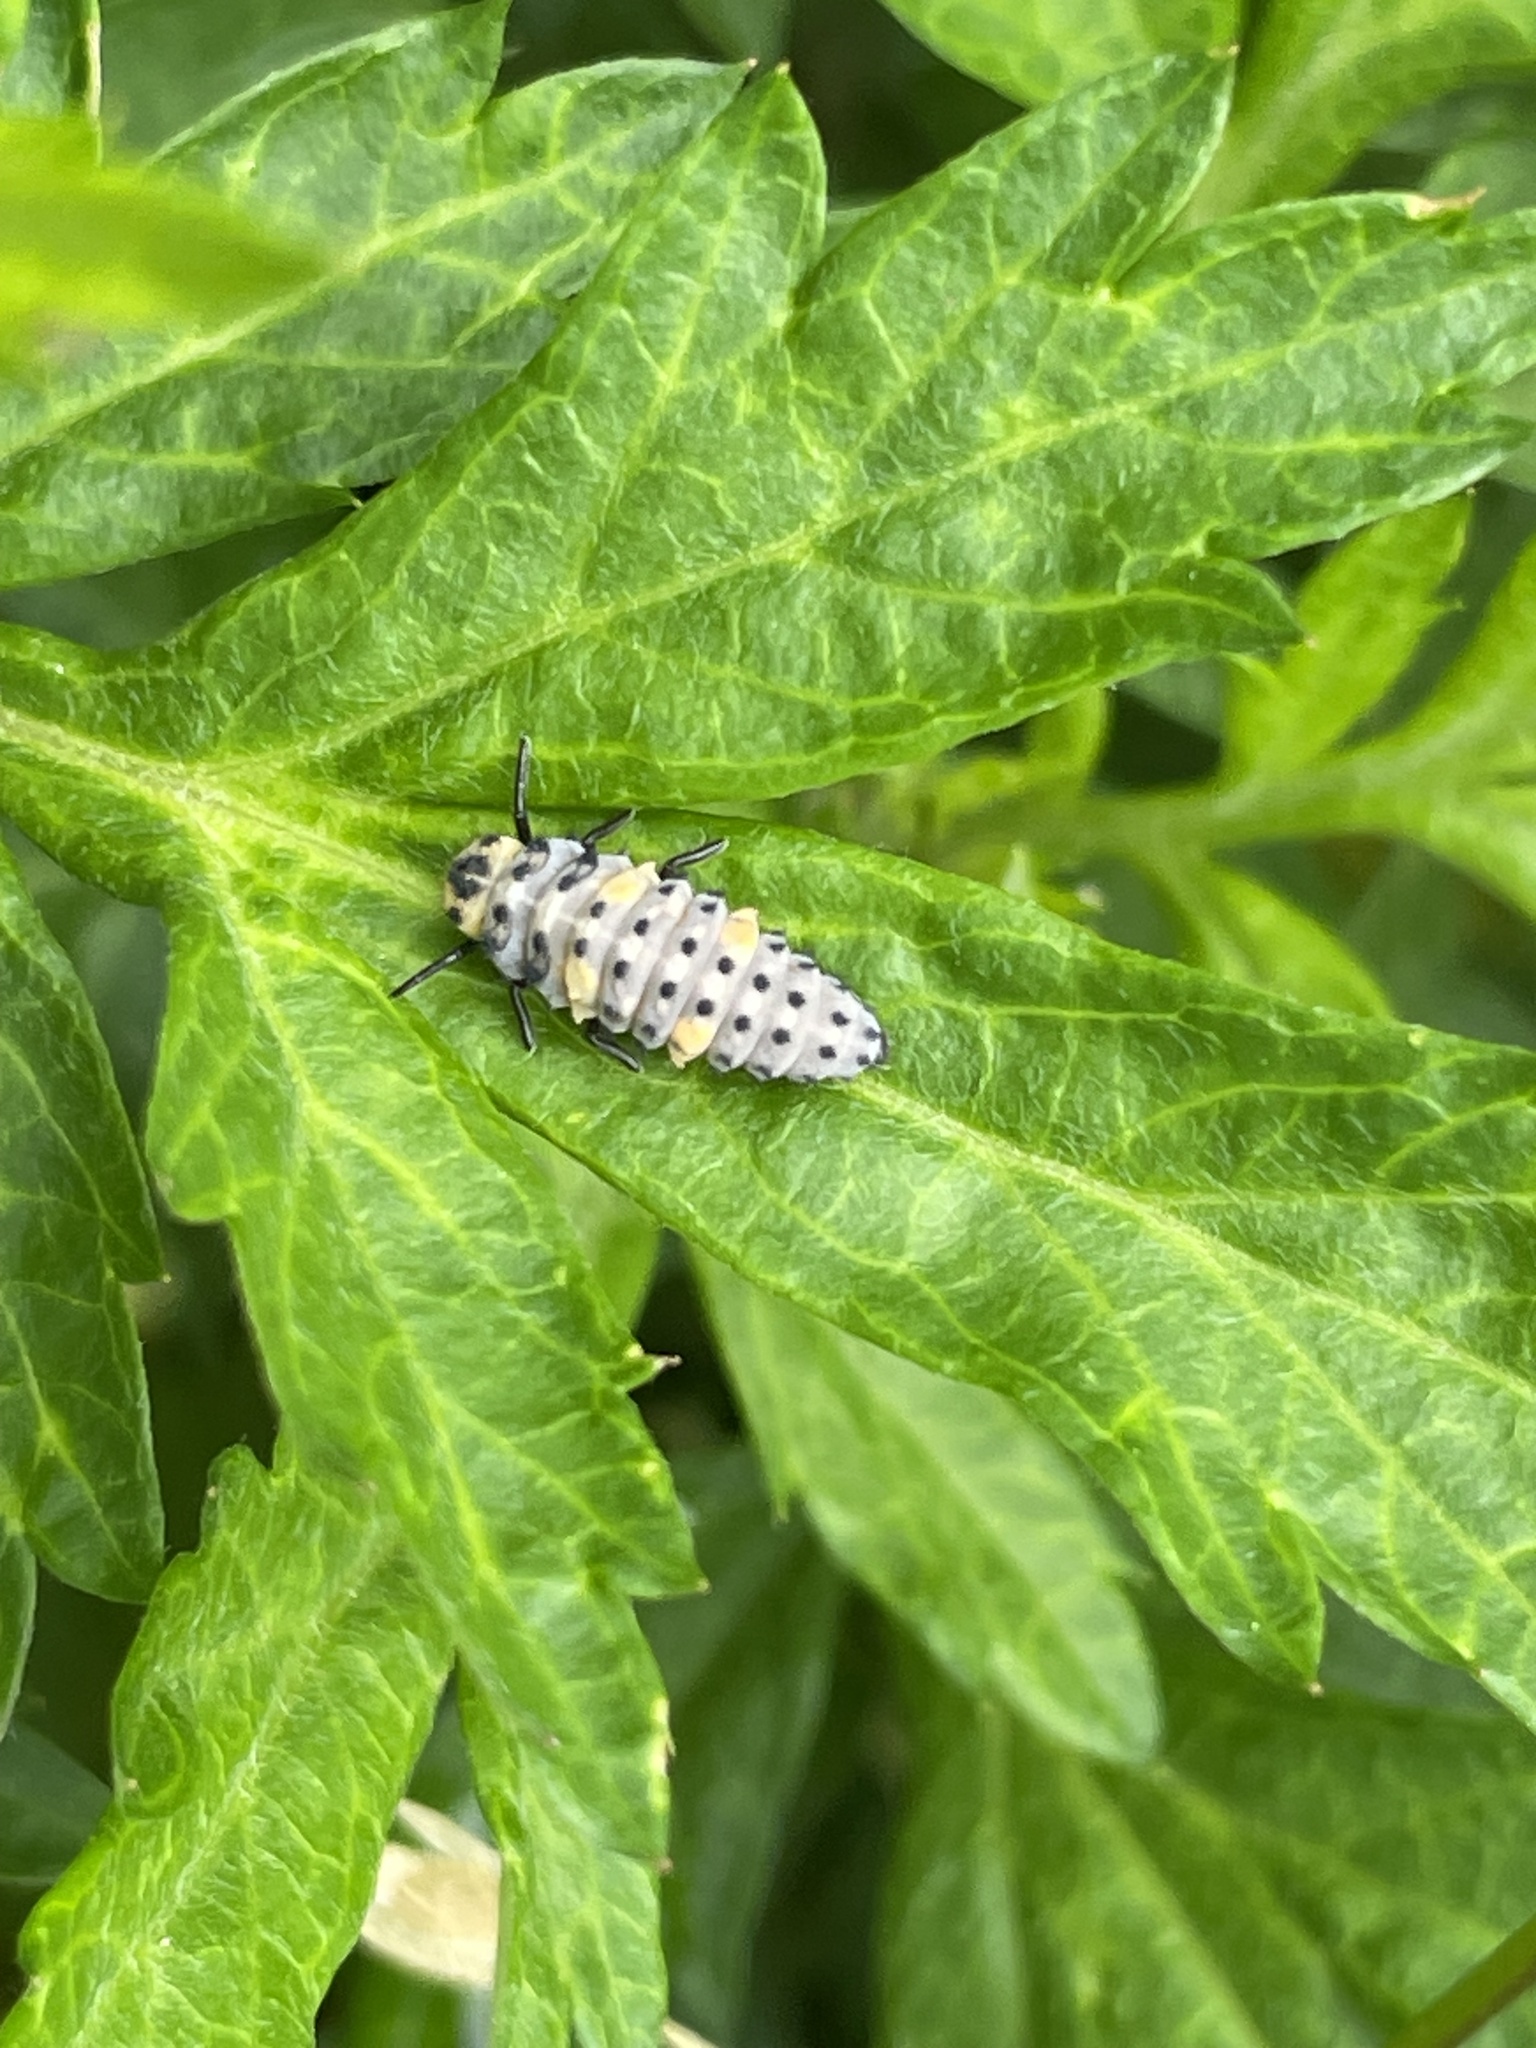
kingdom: Animalia
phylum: Arthropoda
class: Insecta
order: Coleoptera
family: Coccinellidae
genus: Coccinella
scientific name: Coccinella septempunctata
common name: Sevenspotted lady beetle
